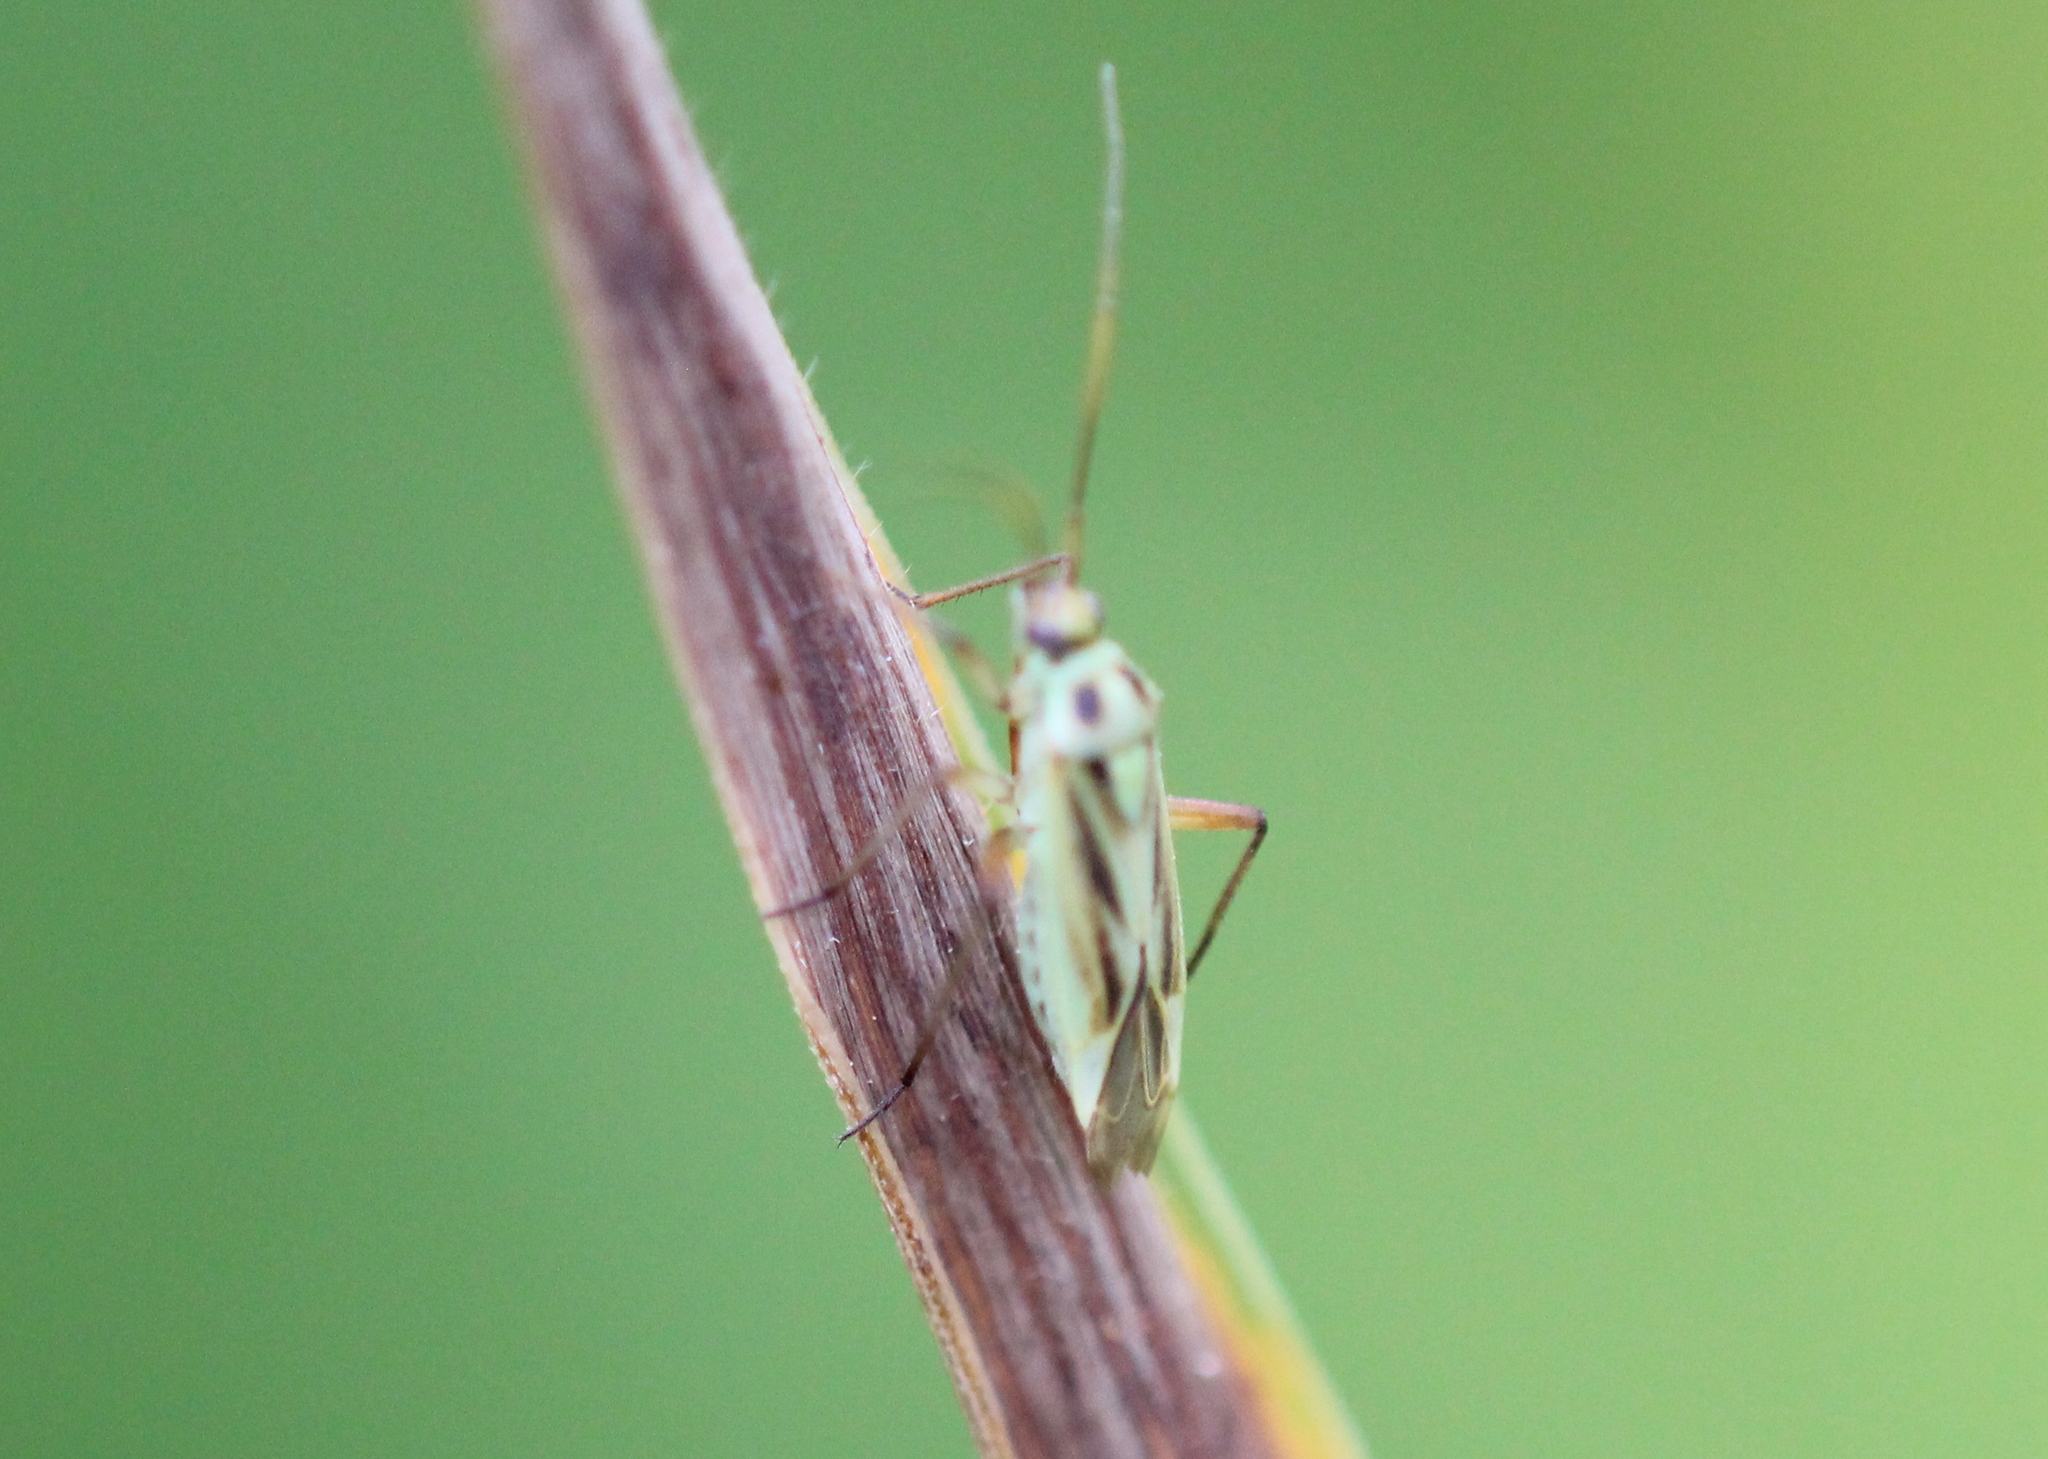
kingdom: Animalia
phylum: Arthropoda
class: Insecta
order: Hemiptera
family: Miridae
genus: Stenotus
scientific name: Stenotus binotatus
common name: Plant bug
